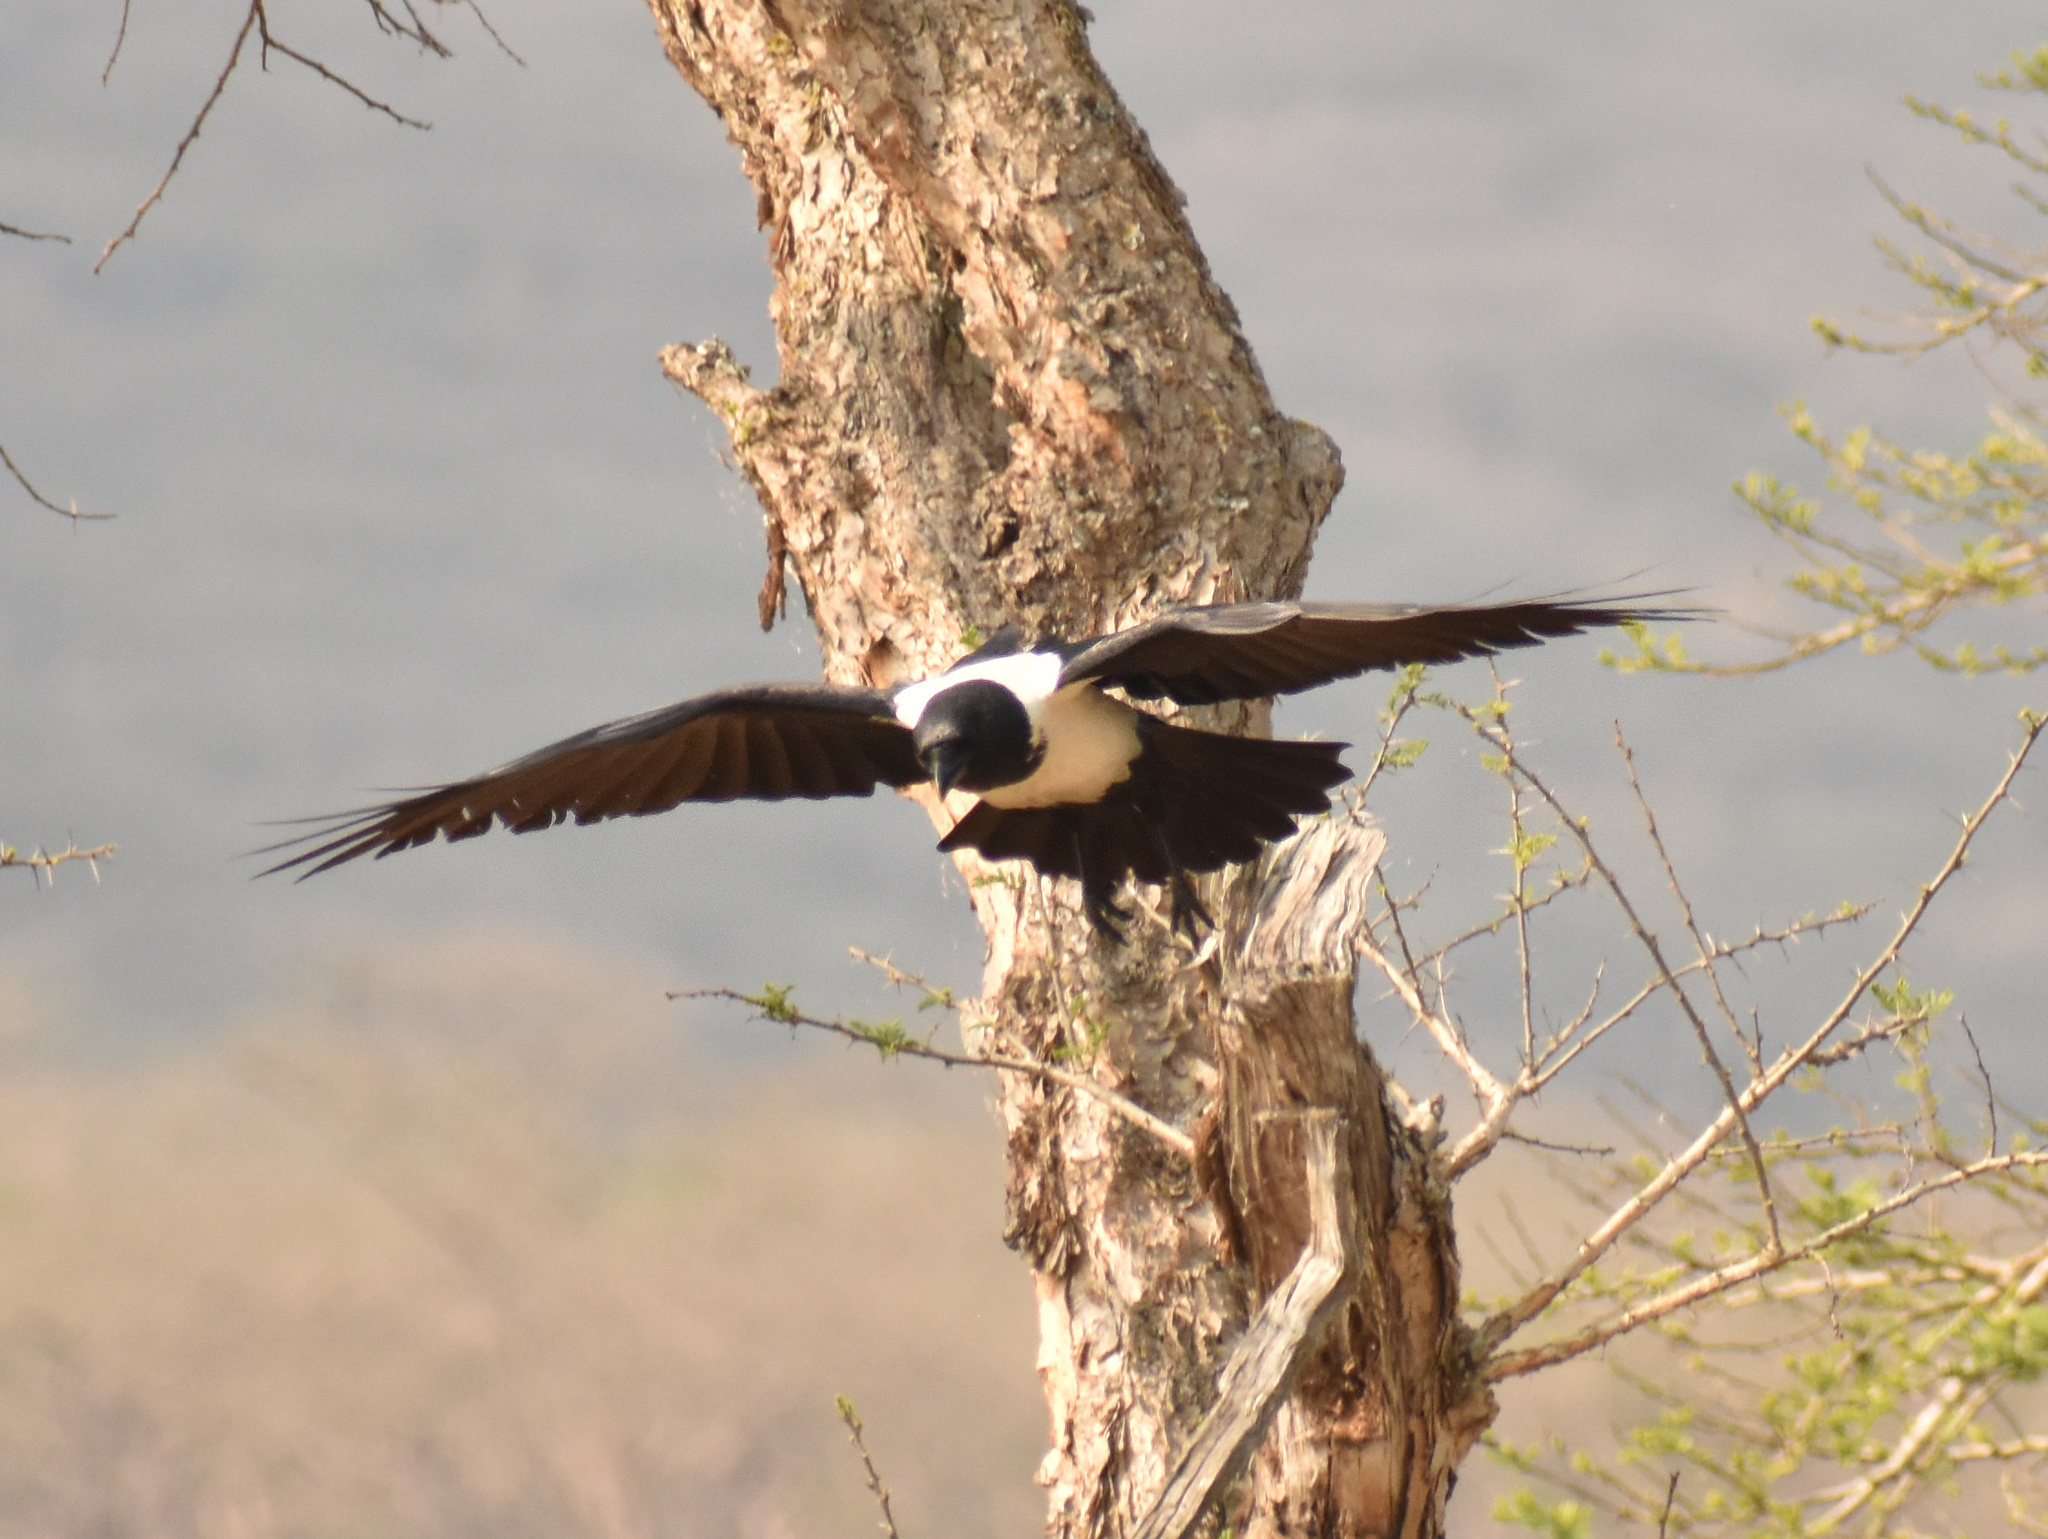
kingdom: Animalia
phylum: Chordata
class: Aves
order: Passeriformes
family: Corvidae
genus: Corvus
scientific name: Corvus albus
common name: Pied crow
